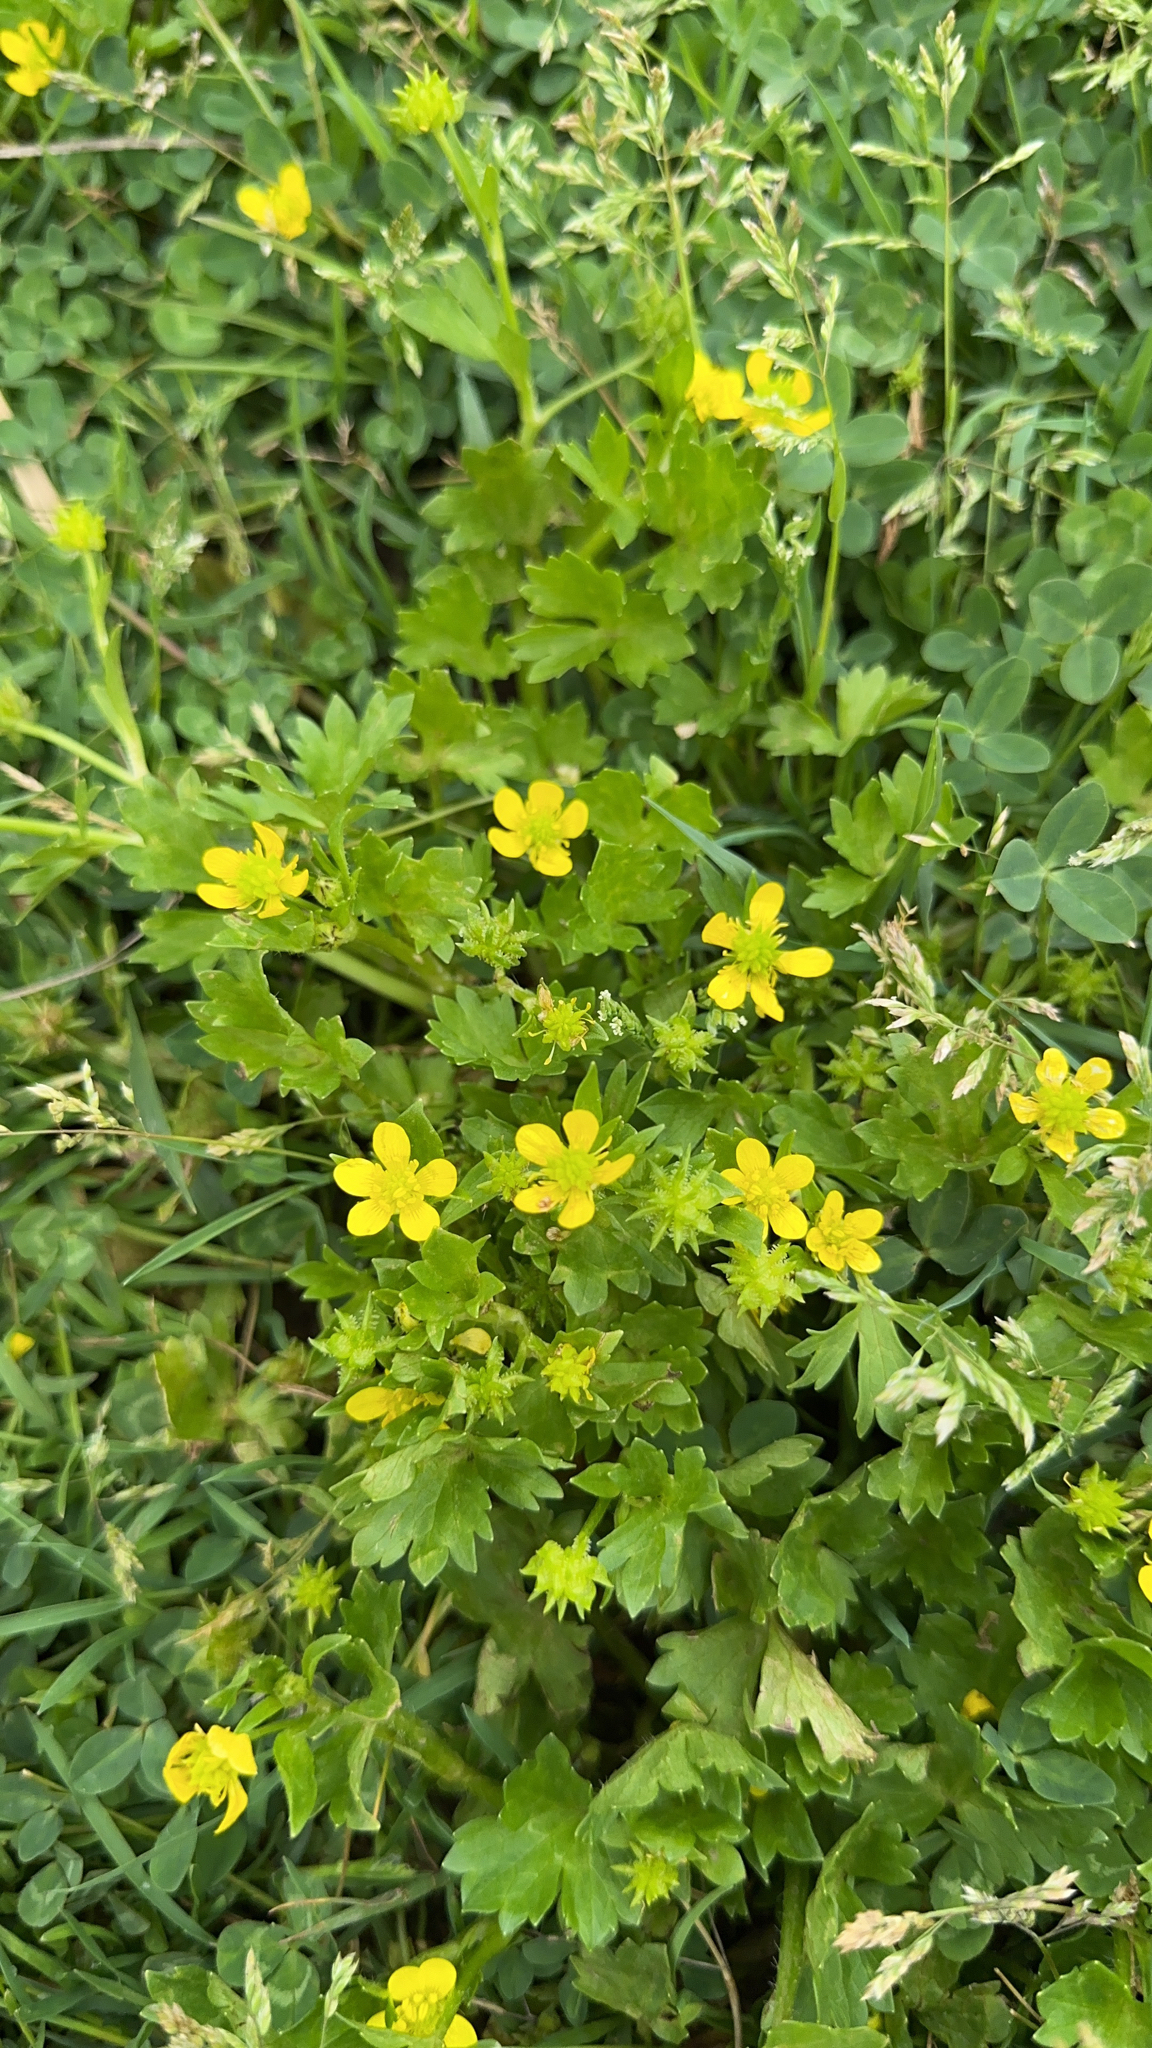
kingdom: Plantae
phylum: Tracheophyta
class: Magnoliopsida
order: Ranunculales
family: Ranunculaceae
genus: Ranunculus
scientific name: Ranunculus muricatus
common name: Rough-fruited buttercup
